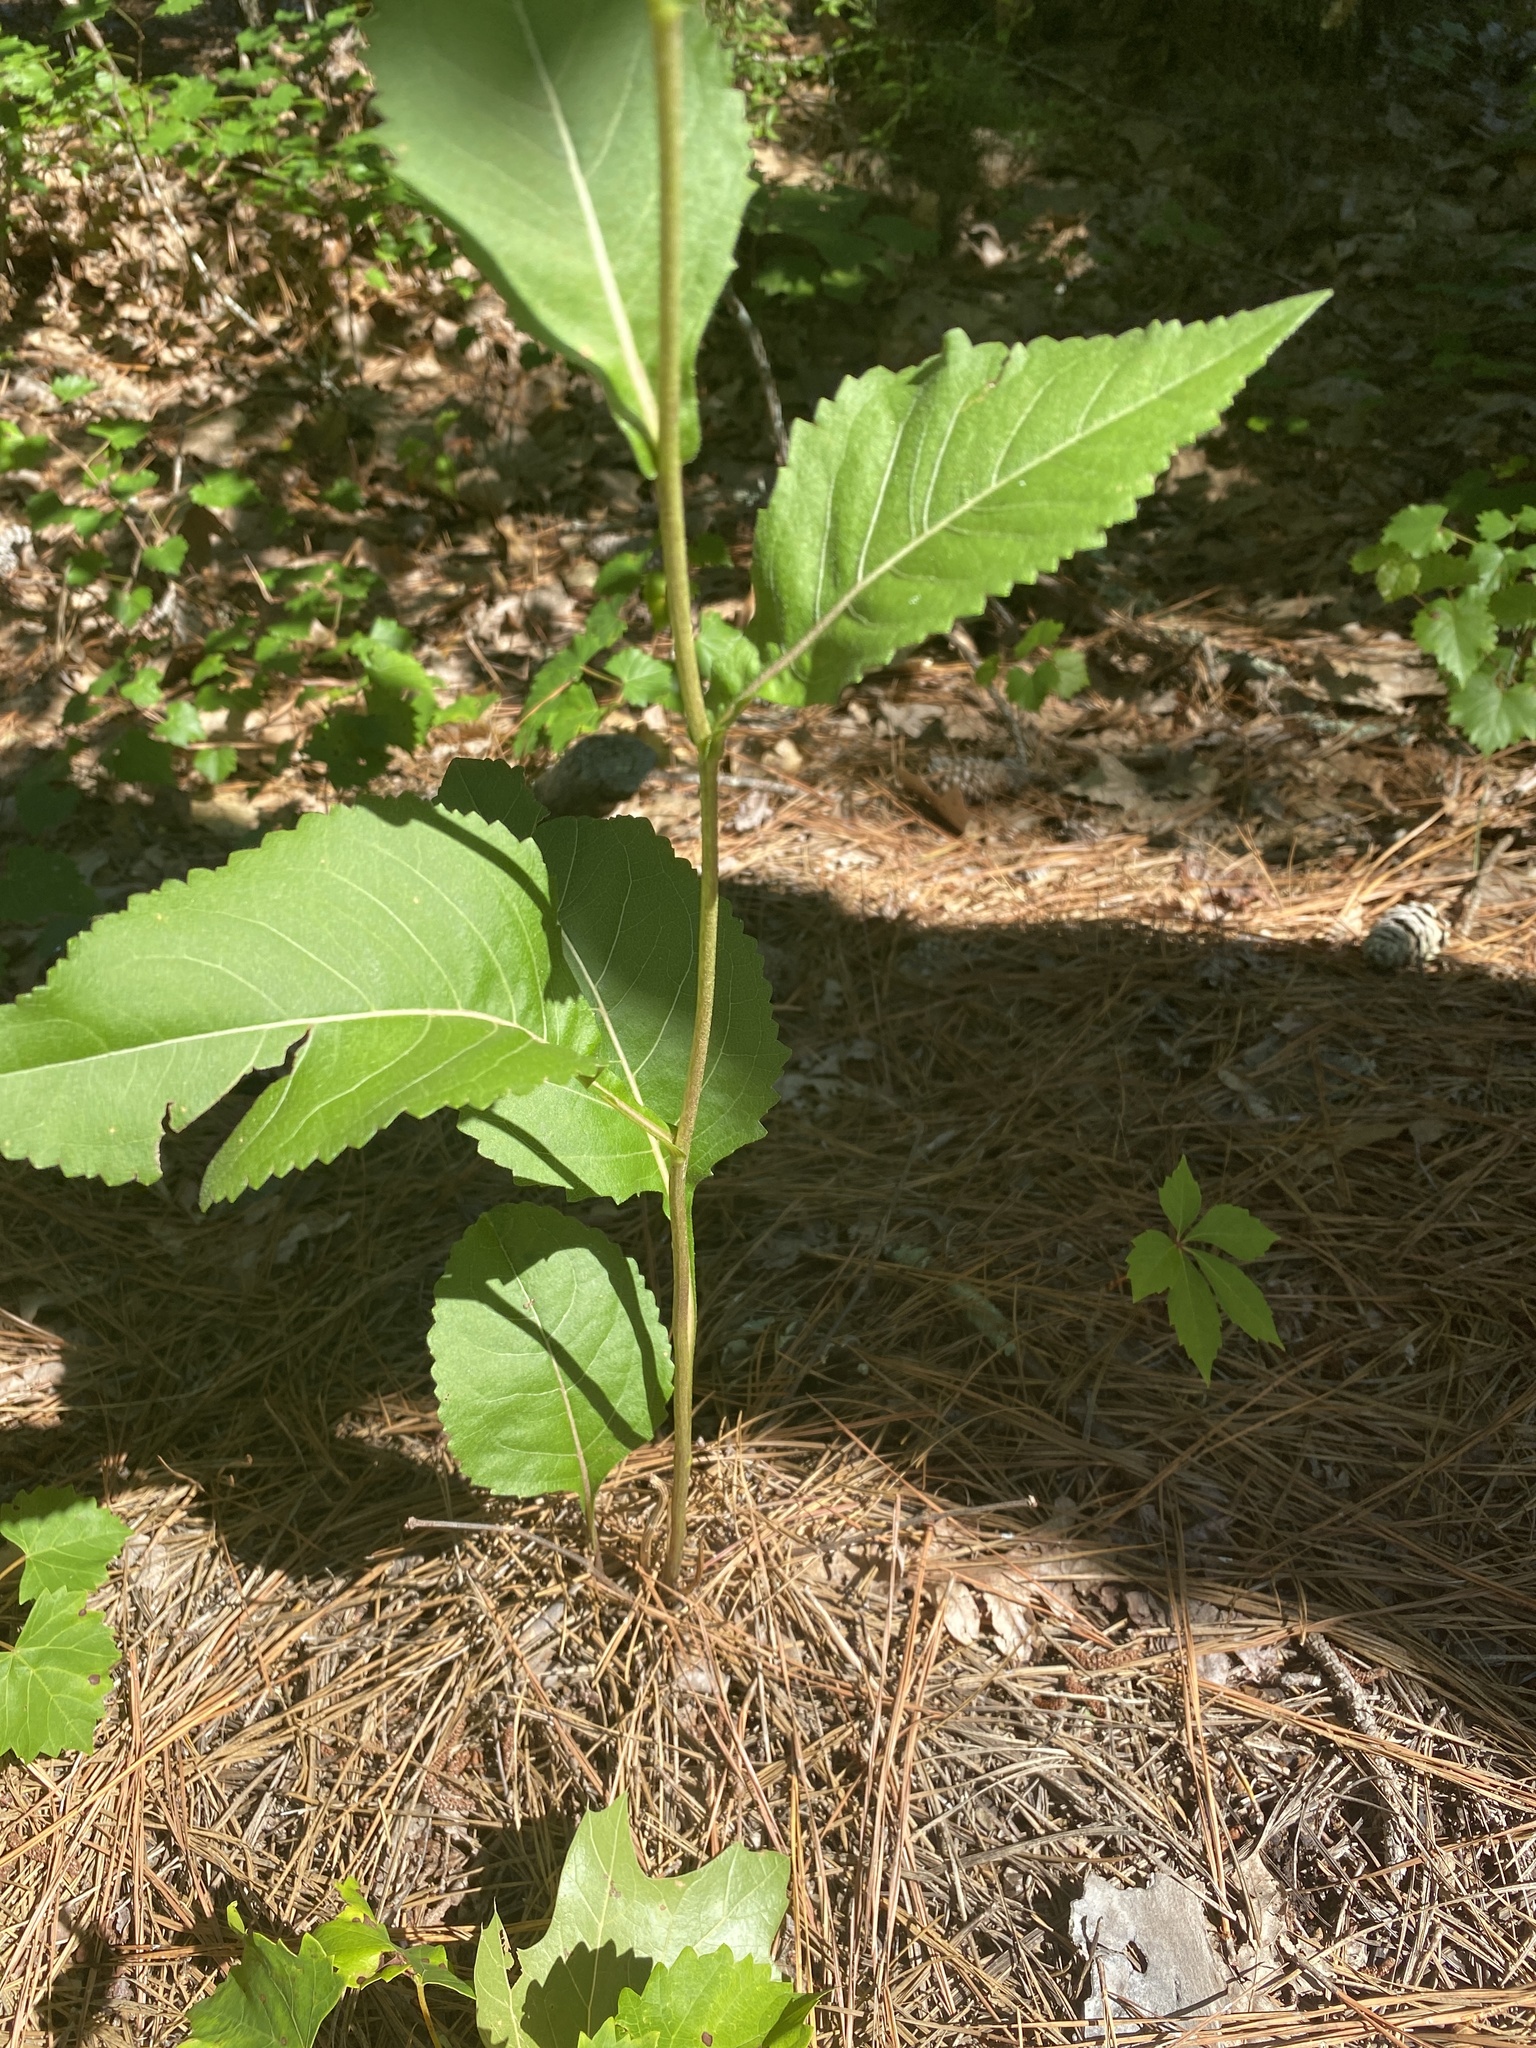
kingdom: Plantae
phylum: Tracheophyta
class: Magnoliopsida
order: Asterales
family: Asteraceae
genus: Parthenium
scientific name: Parthenium integrifolium
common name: American feverfew
